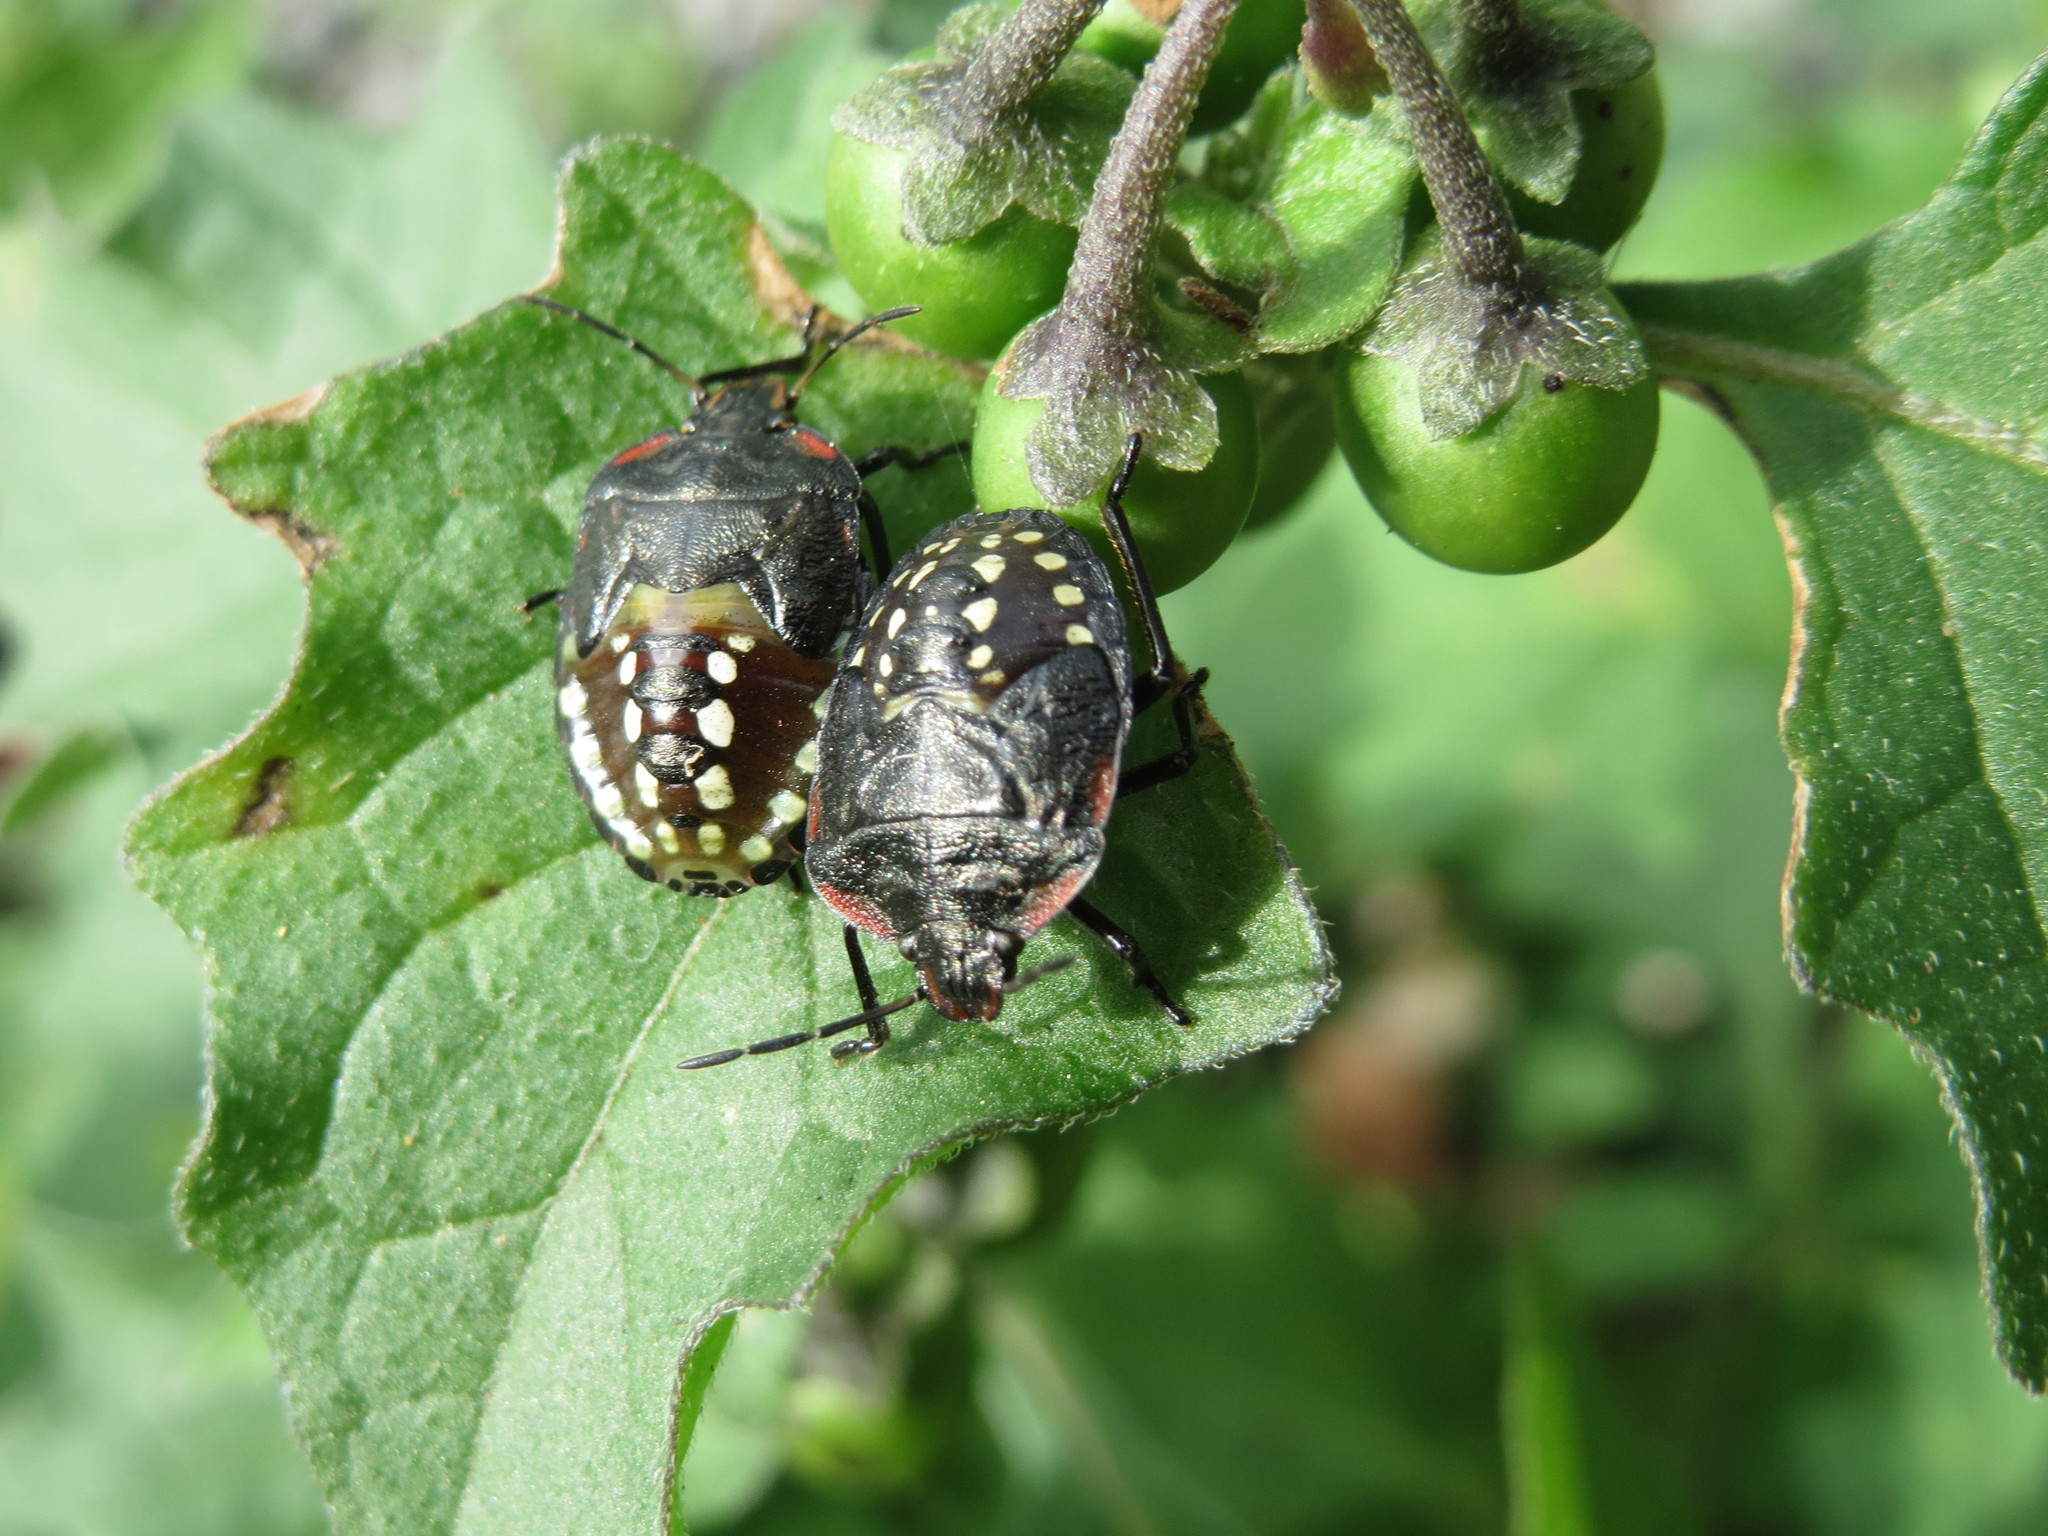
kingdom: Plantae
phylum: Tracheophyta
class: Magnoliopsida
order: Solanales
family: Solanaceae
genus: Solanum
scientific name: Solanum nigrum
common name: Black nightshade
